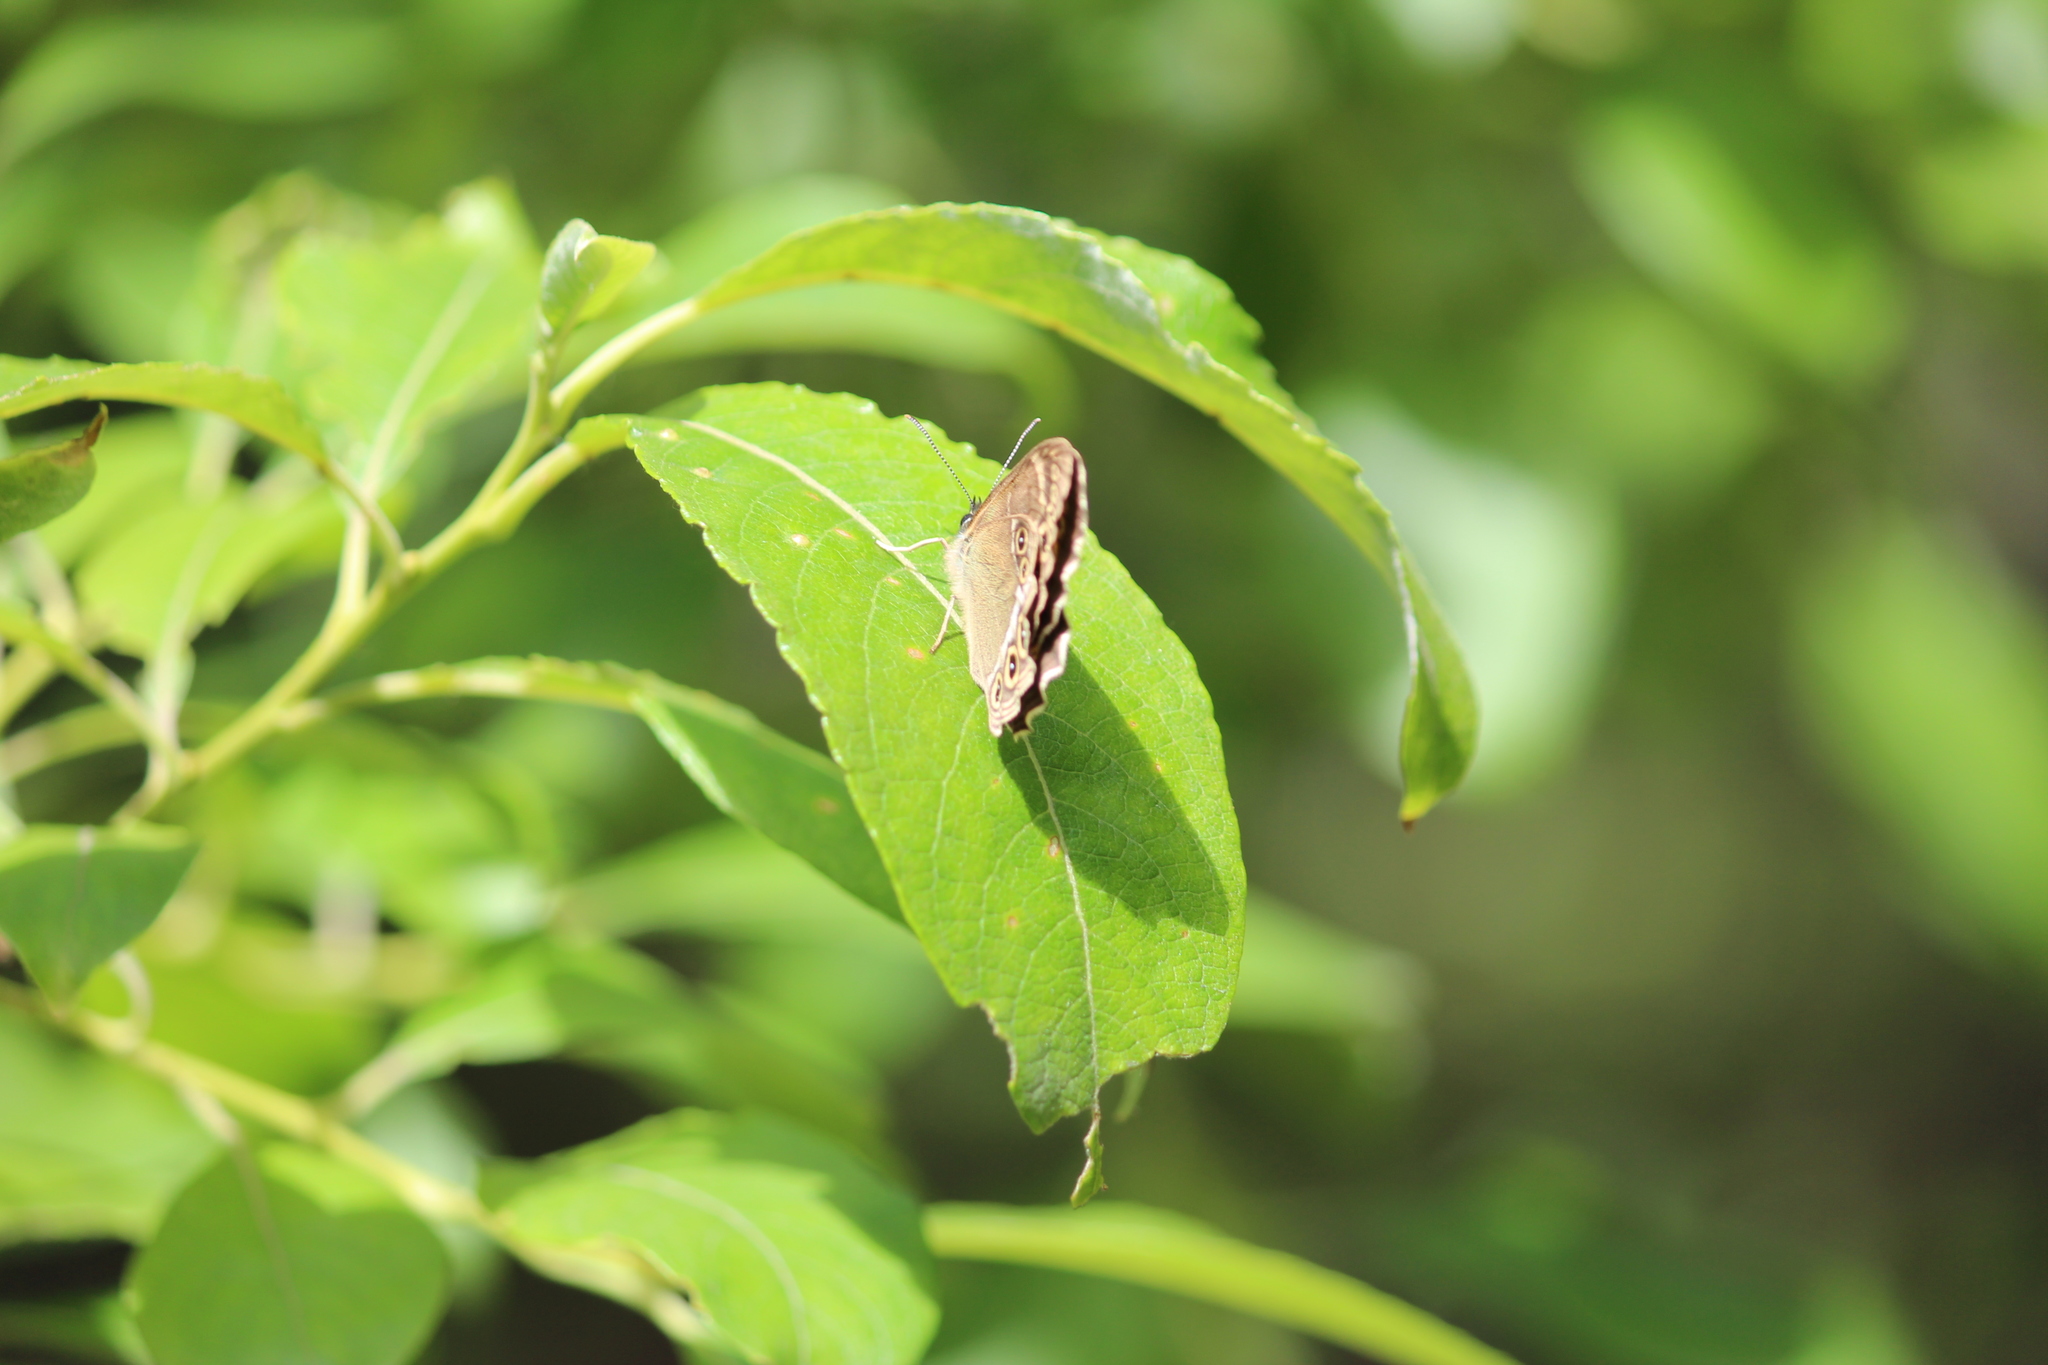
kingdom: Animalia
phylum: Arthropoda
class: Insecta
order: Lepidoptera
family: Nymphalidae
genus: Pararge
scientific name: Pararge Lopinga achine
